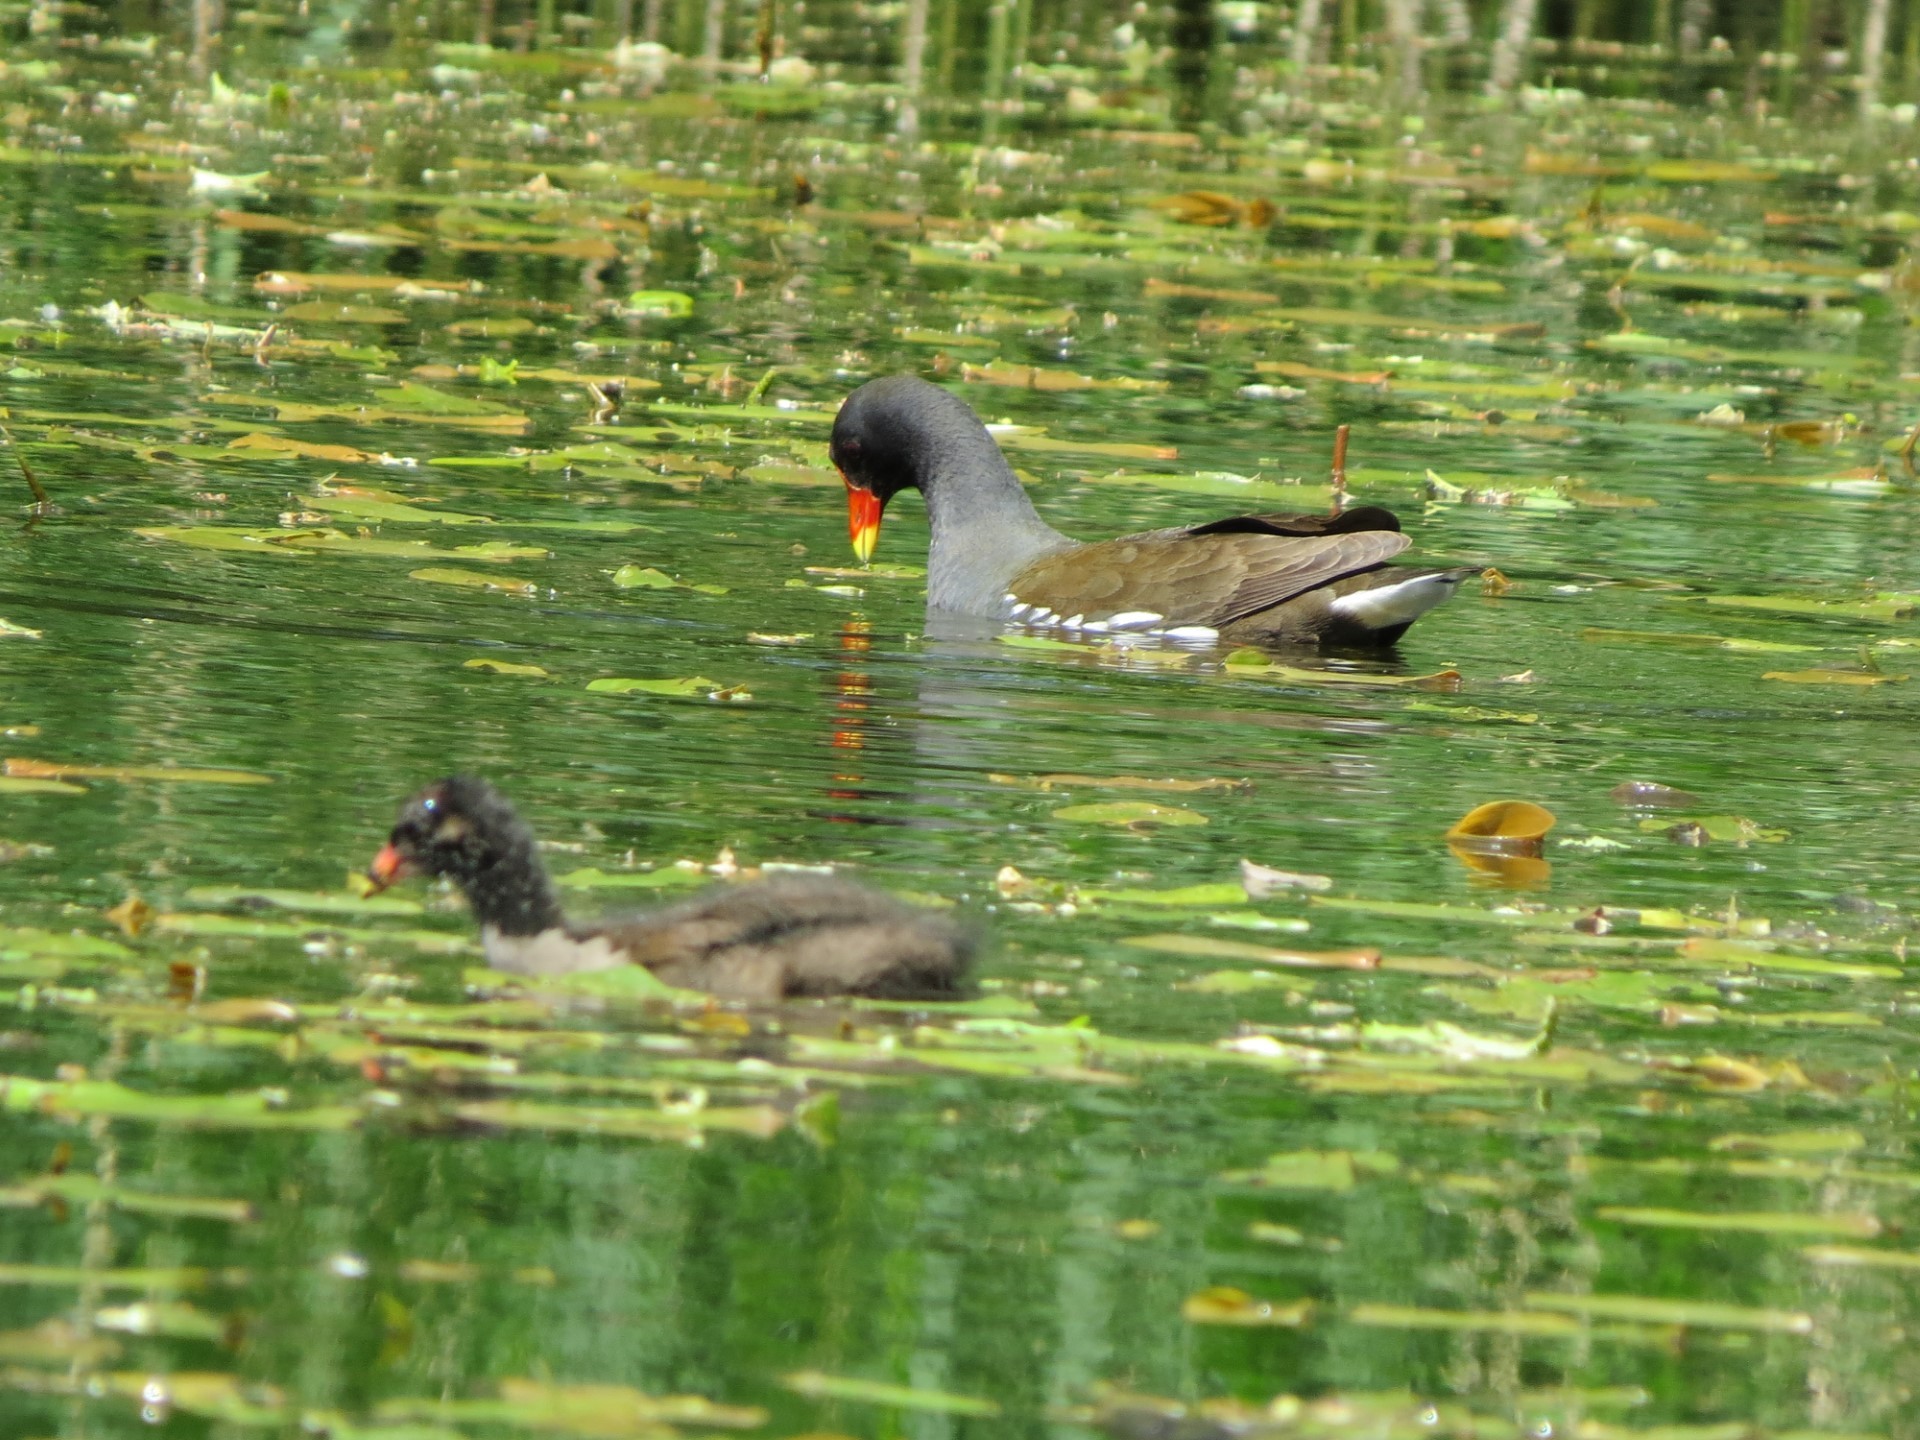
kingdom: Animalia
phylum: Chordata
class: Aves
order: Gruiformes
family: Rallidae
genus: Gallinula
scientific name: Gallinula chloropus
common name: Common moorhen
